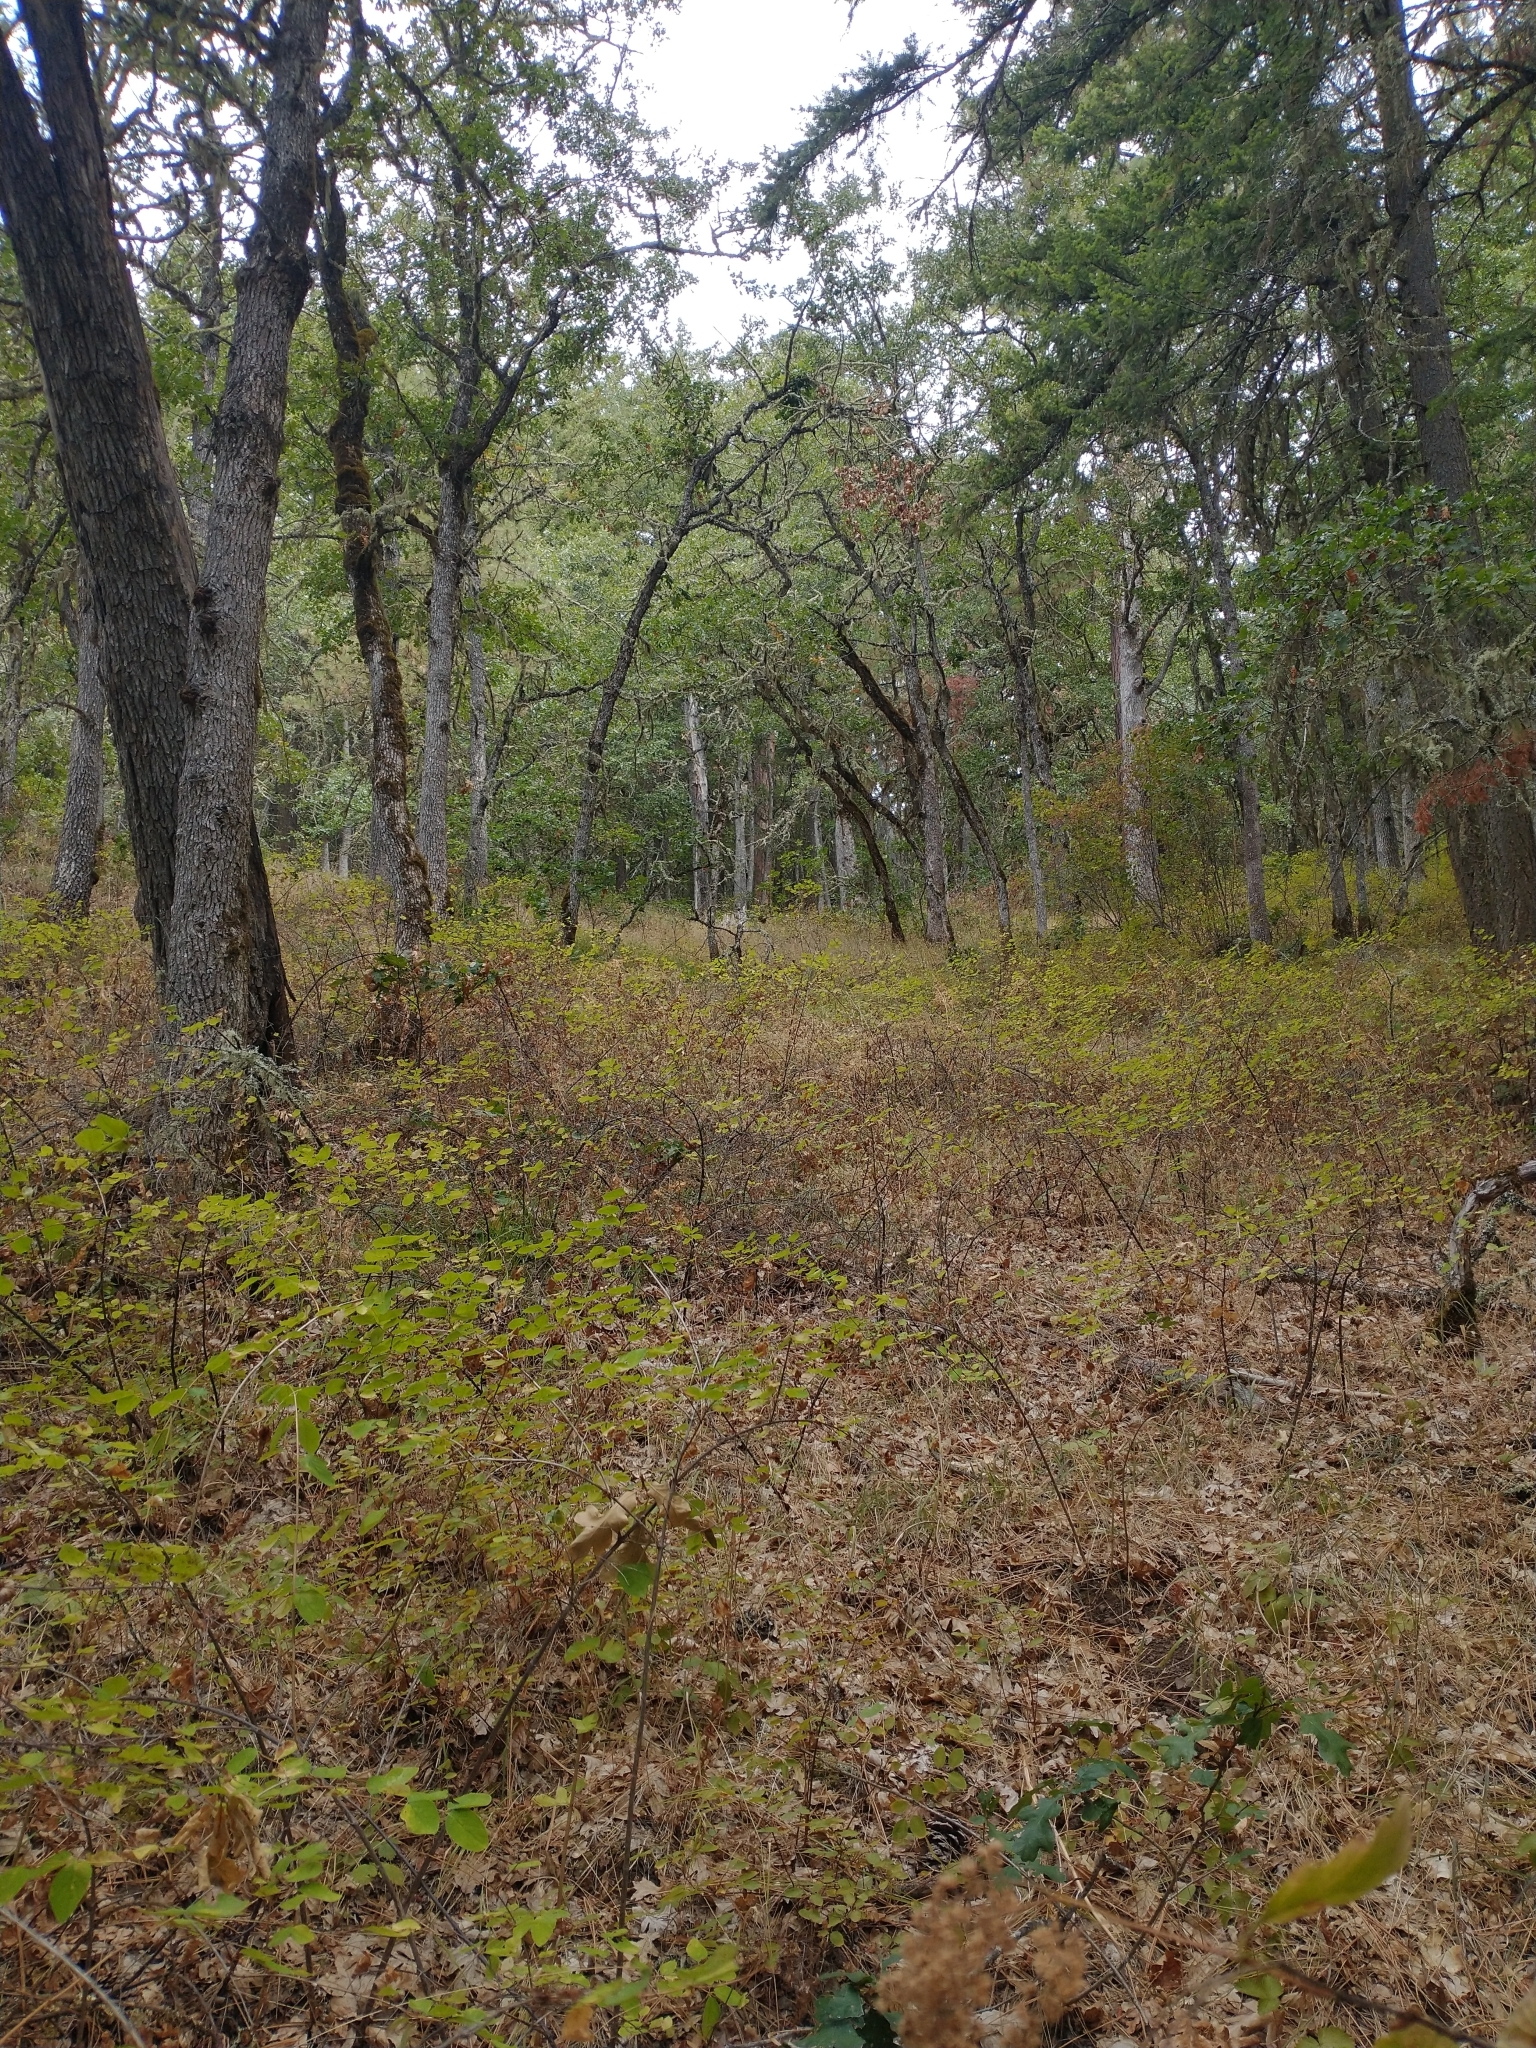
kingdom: Plantae
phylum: Tracheophyta
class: Magnoliopsida
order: Fagales
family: Fagaceae
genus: Quercus
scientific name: Quercus garryana
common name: Garry oak
